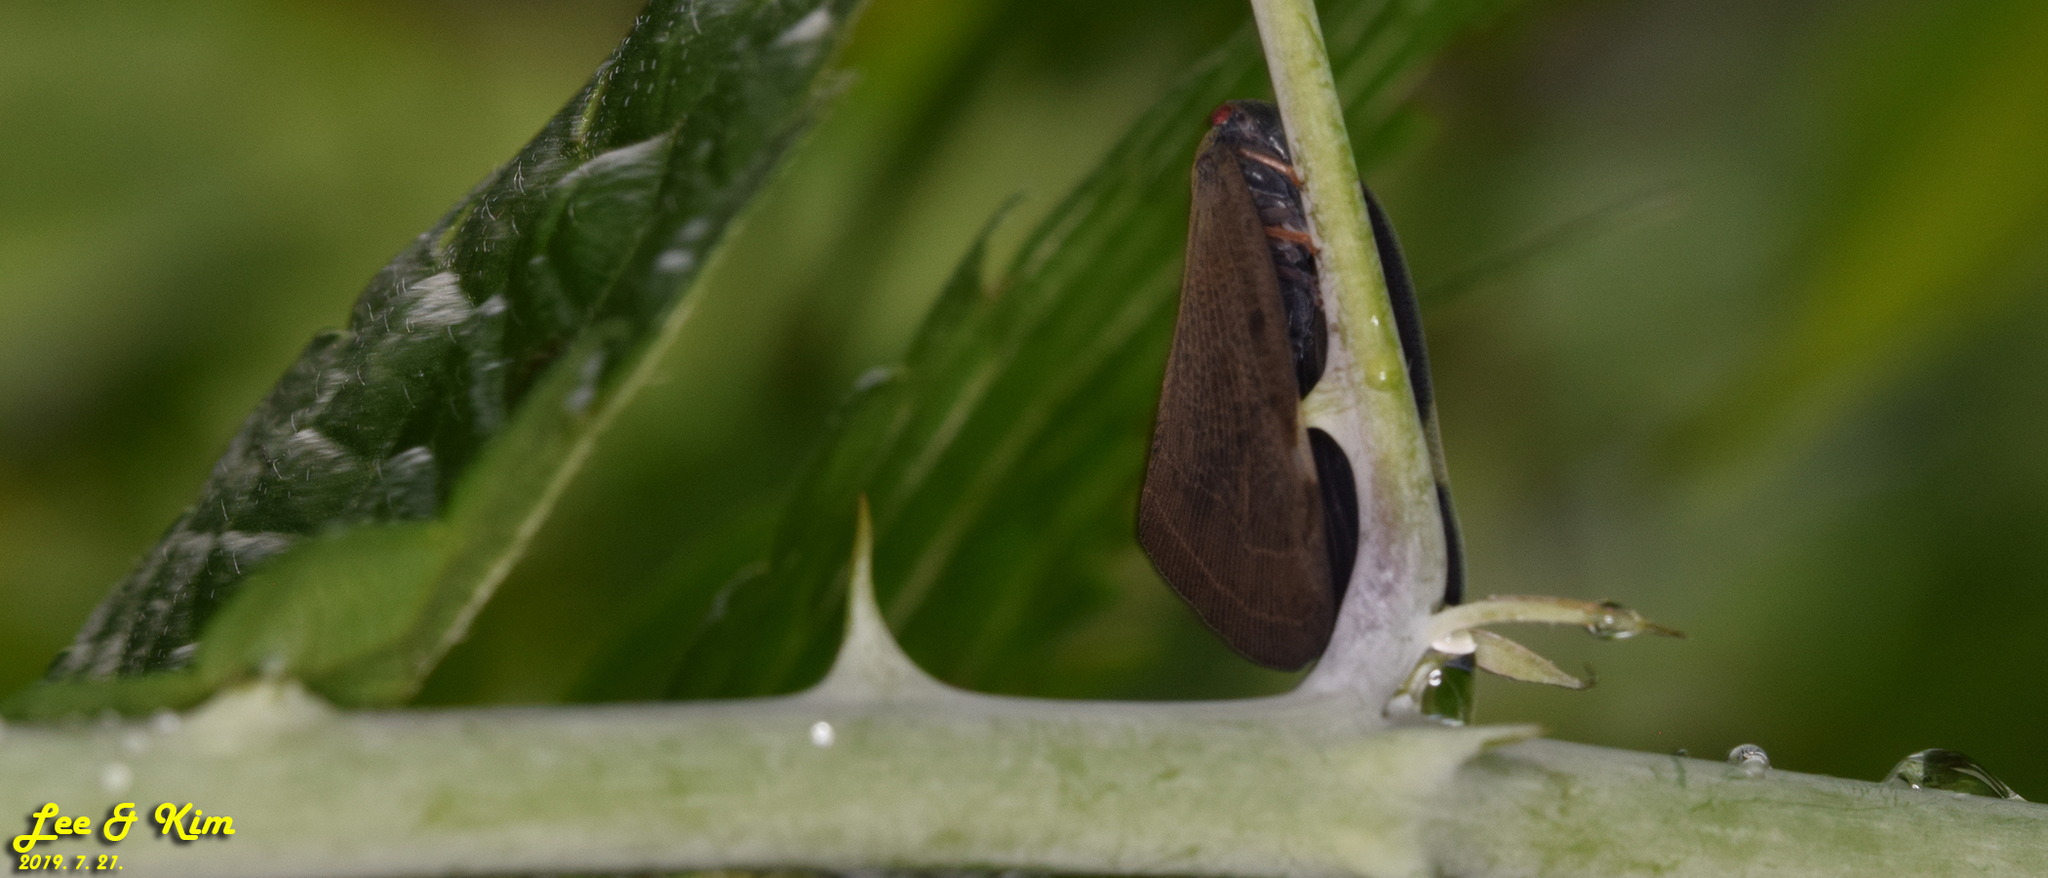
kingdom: Animalia
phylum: Arthropoda
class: Insecta
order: Hemiptera
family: Ricaniidae
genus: Ricanula
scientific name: Ricanula sublimata
